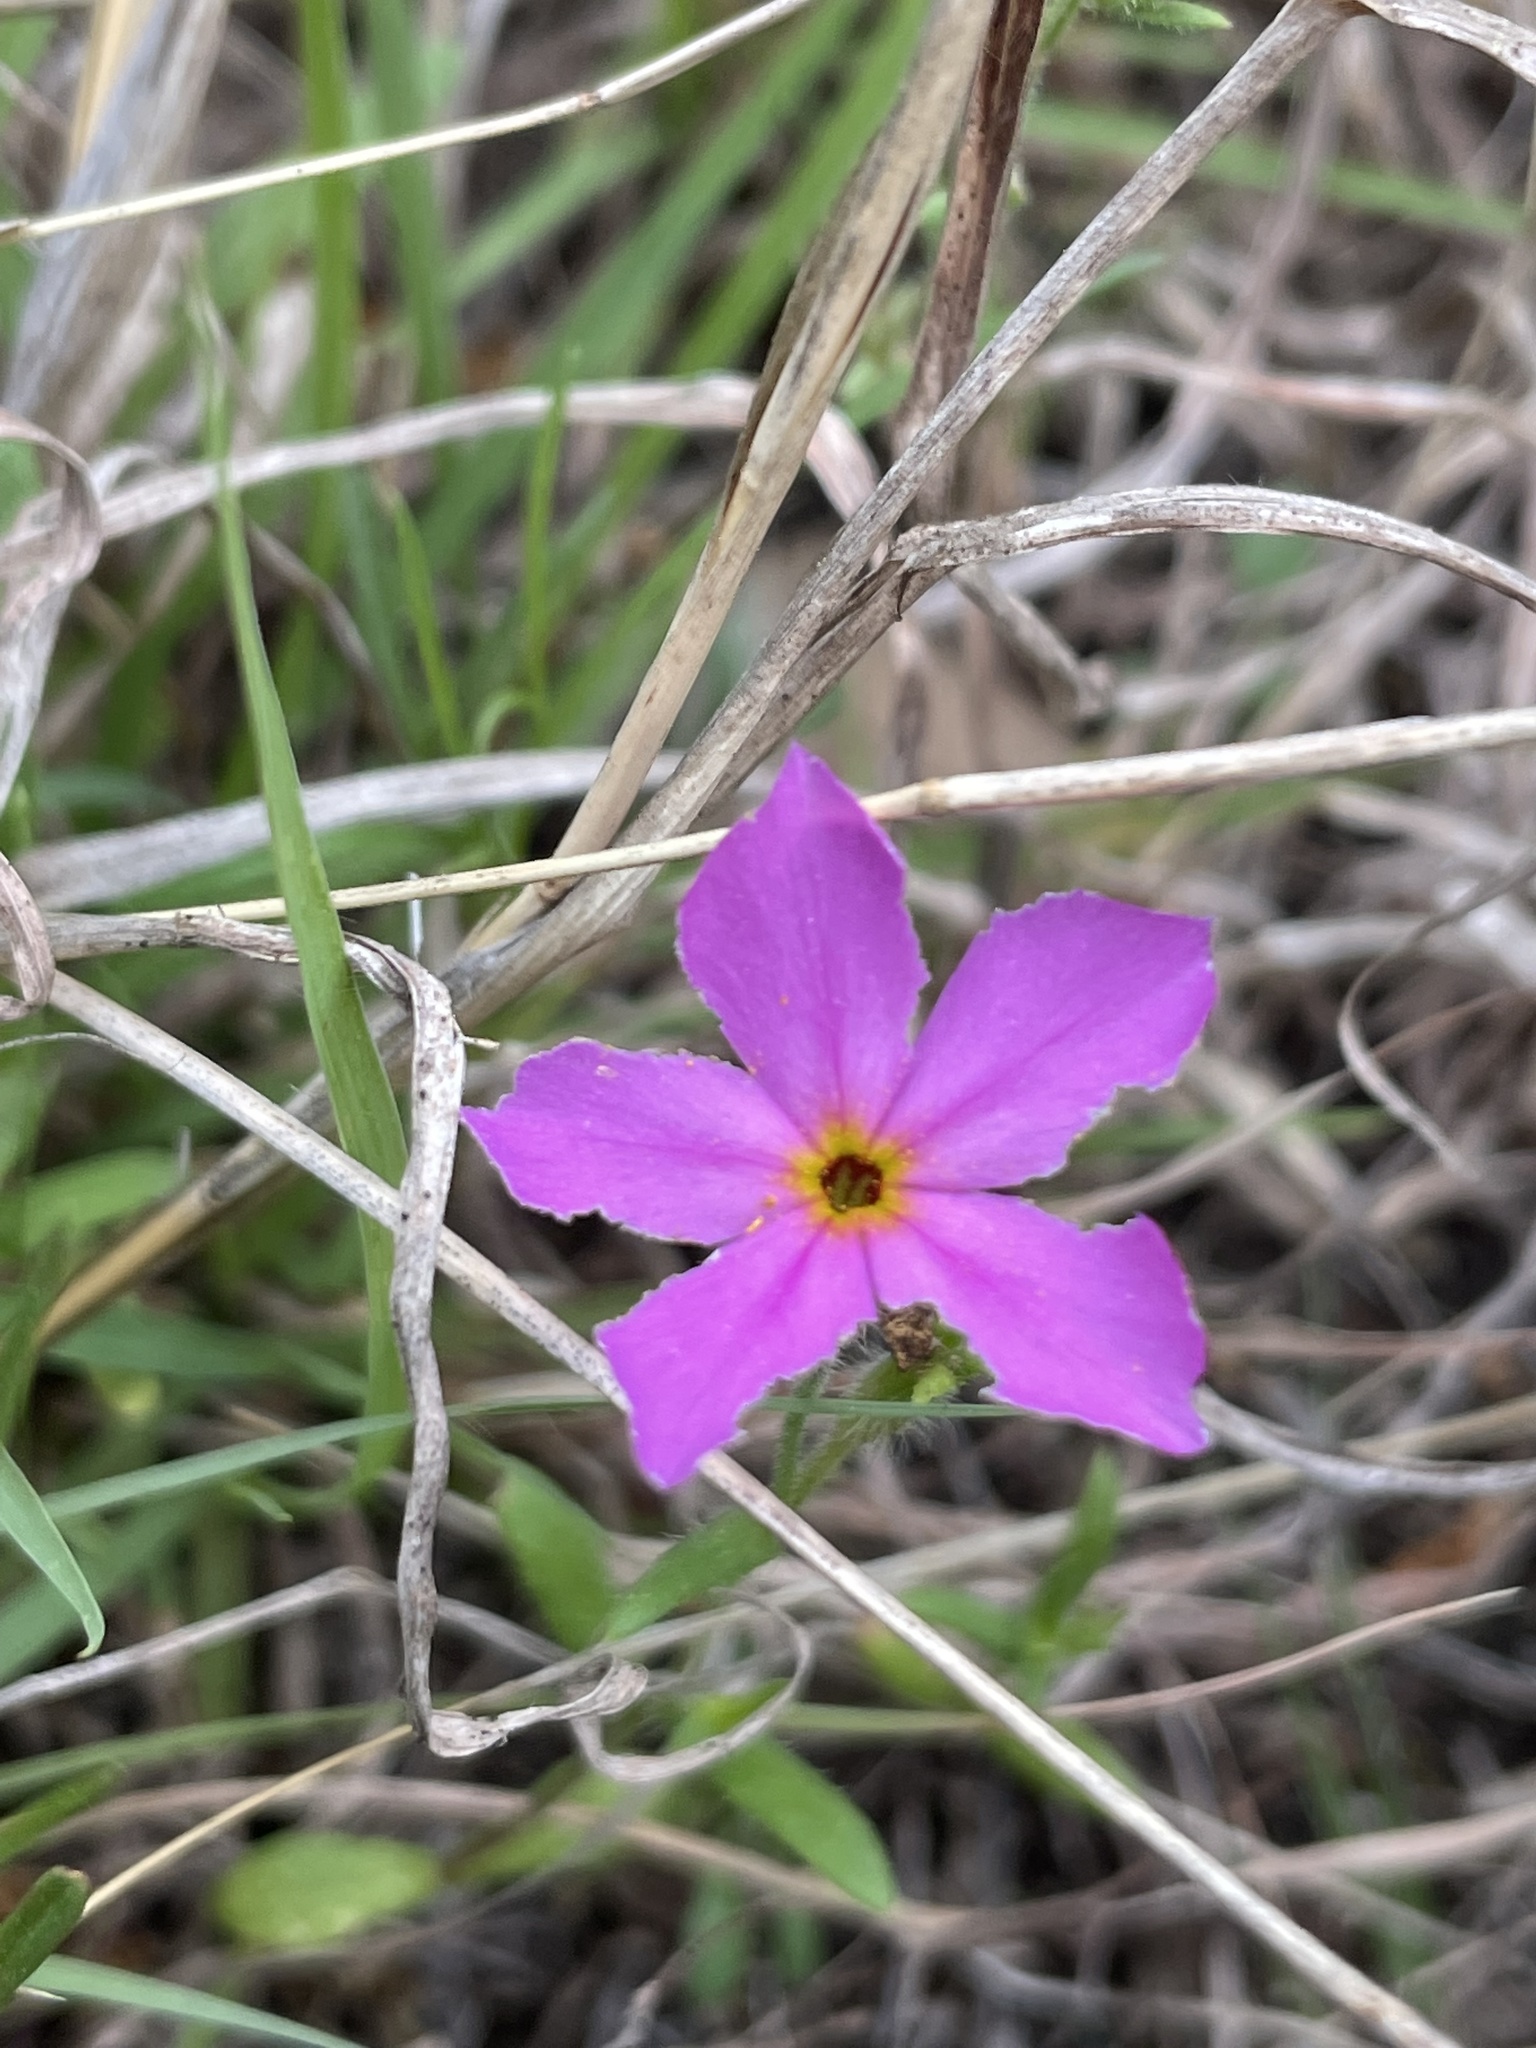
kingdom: Plantae
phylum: Tracheophyta
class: Magnoliopsida
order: Ericales
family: Polemoniaceae
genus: Phlox
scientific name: Phlox roemeriana
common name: Roemer's phlox
